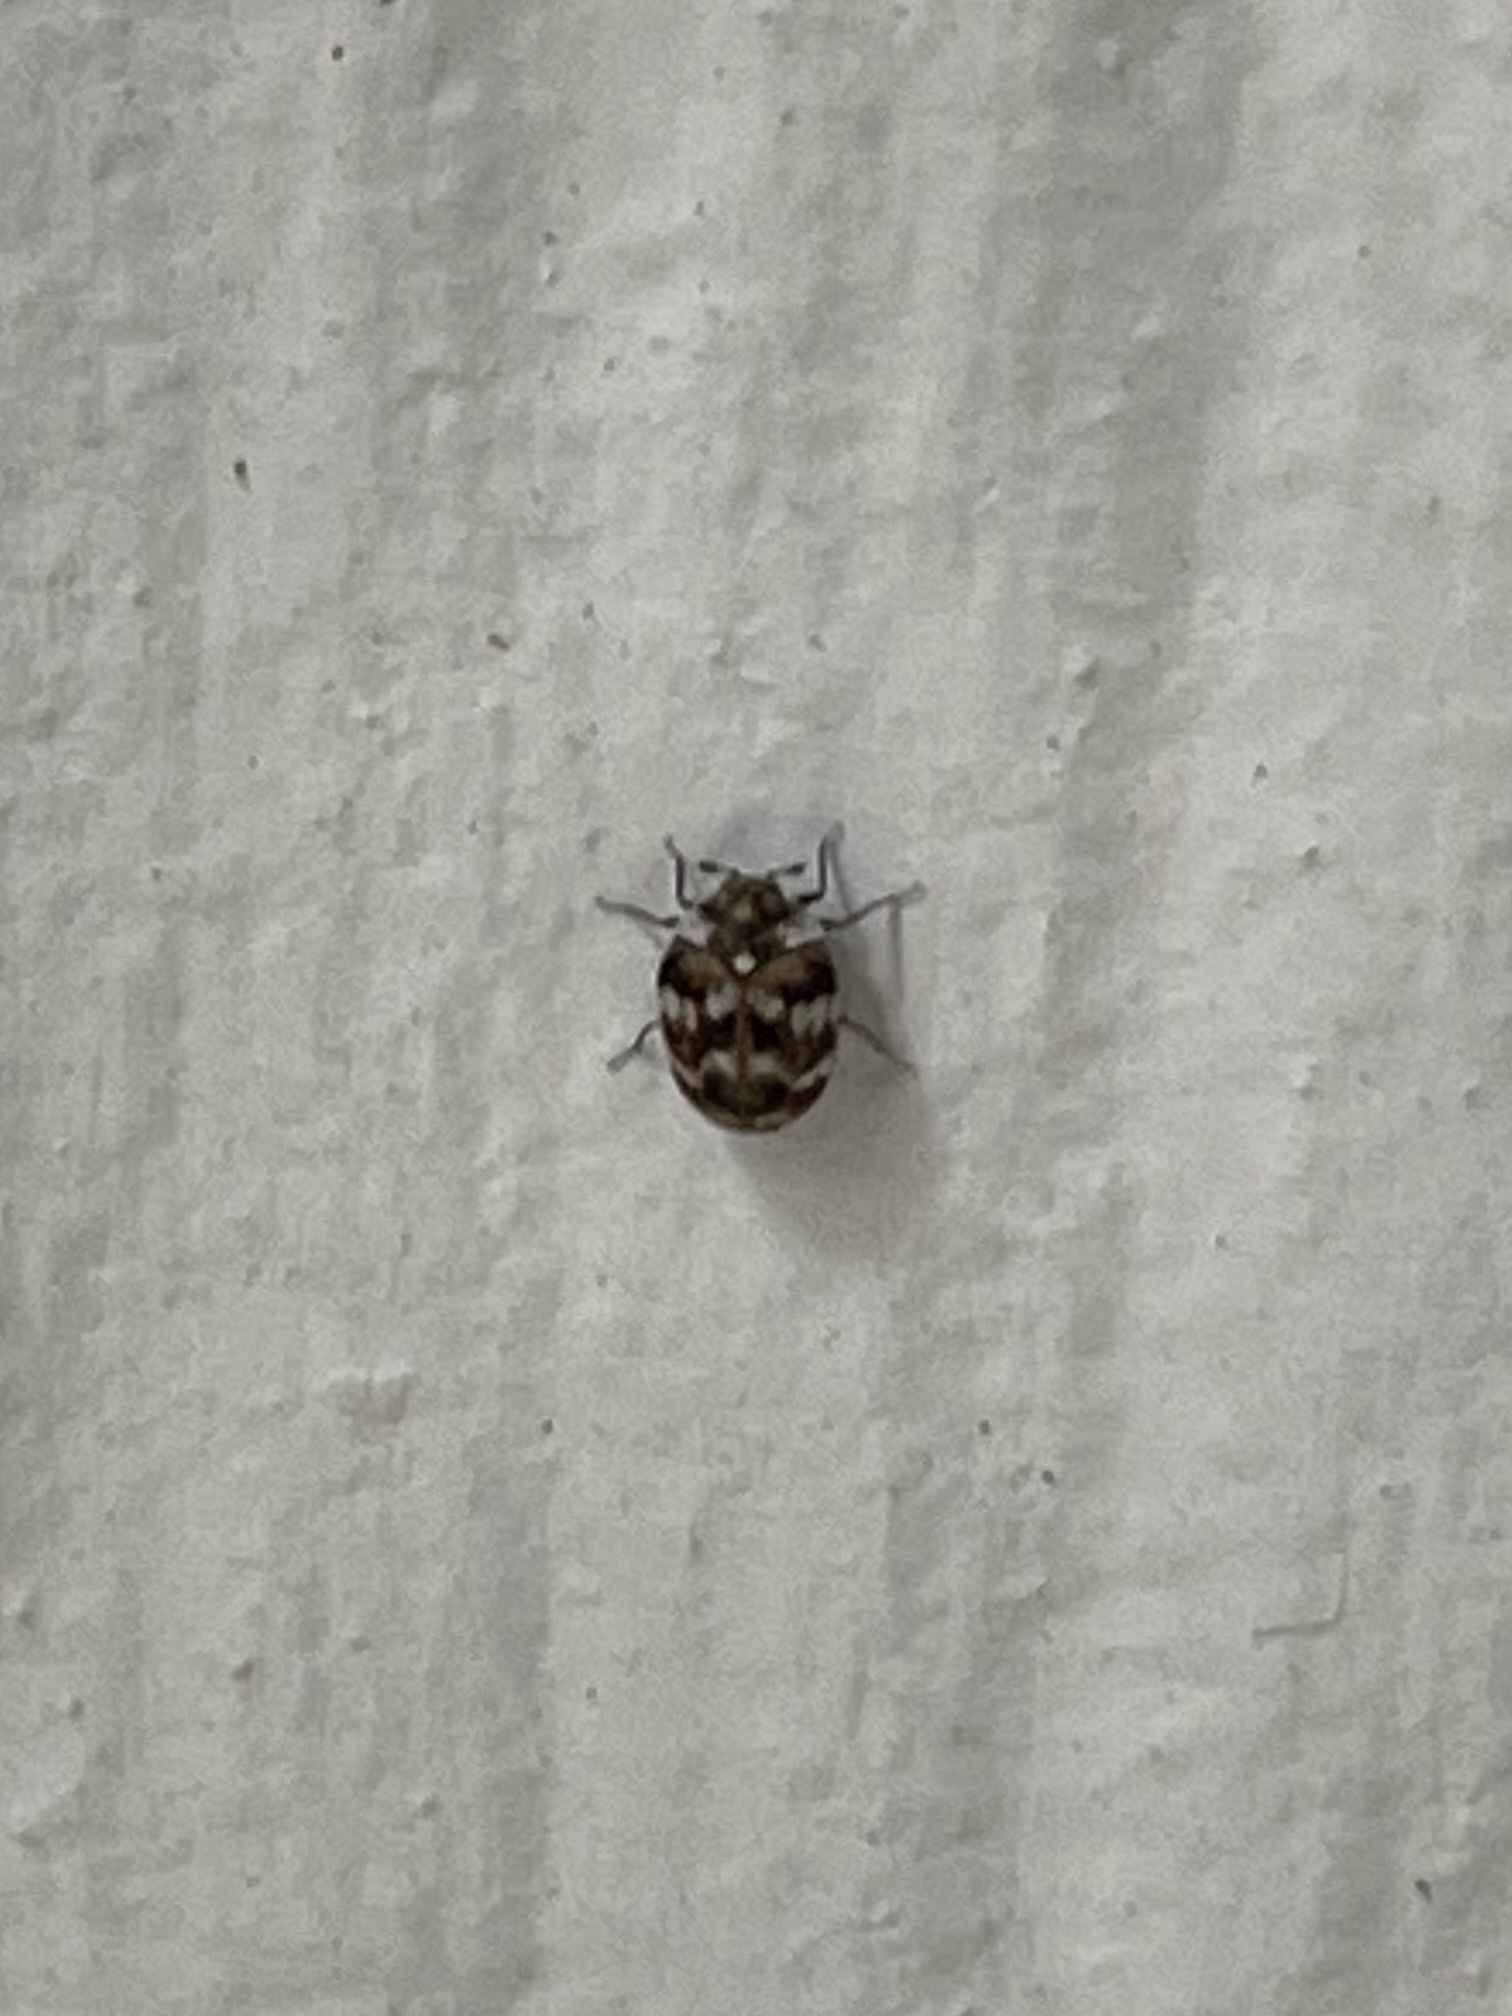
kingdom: Animalia
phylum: Arthropoda
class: Insecta
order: Coleoptera
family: Dermestidae
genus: Anthrenus
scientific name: Anthrenus verbasci
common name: Varied carpet beetle
